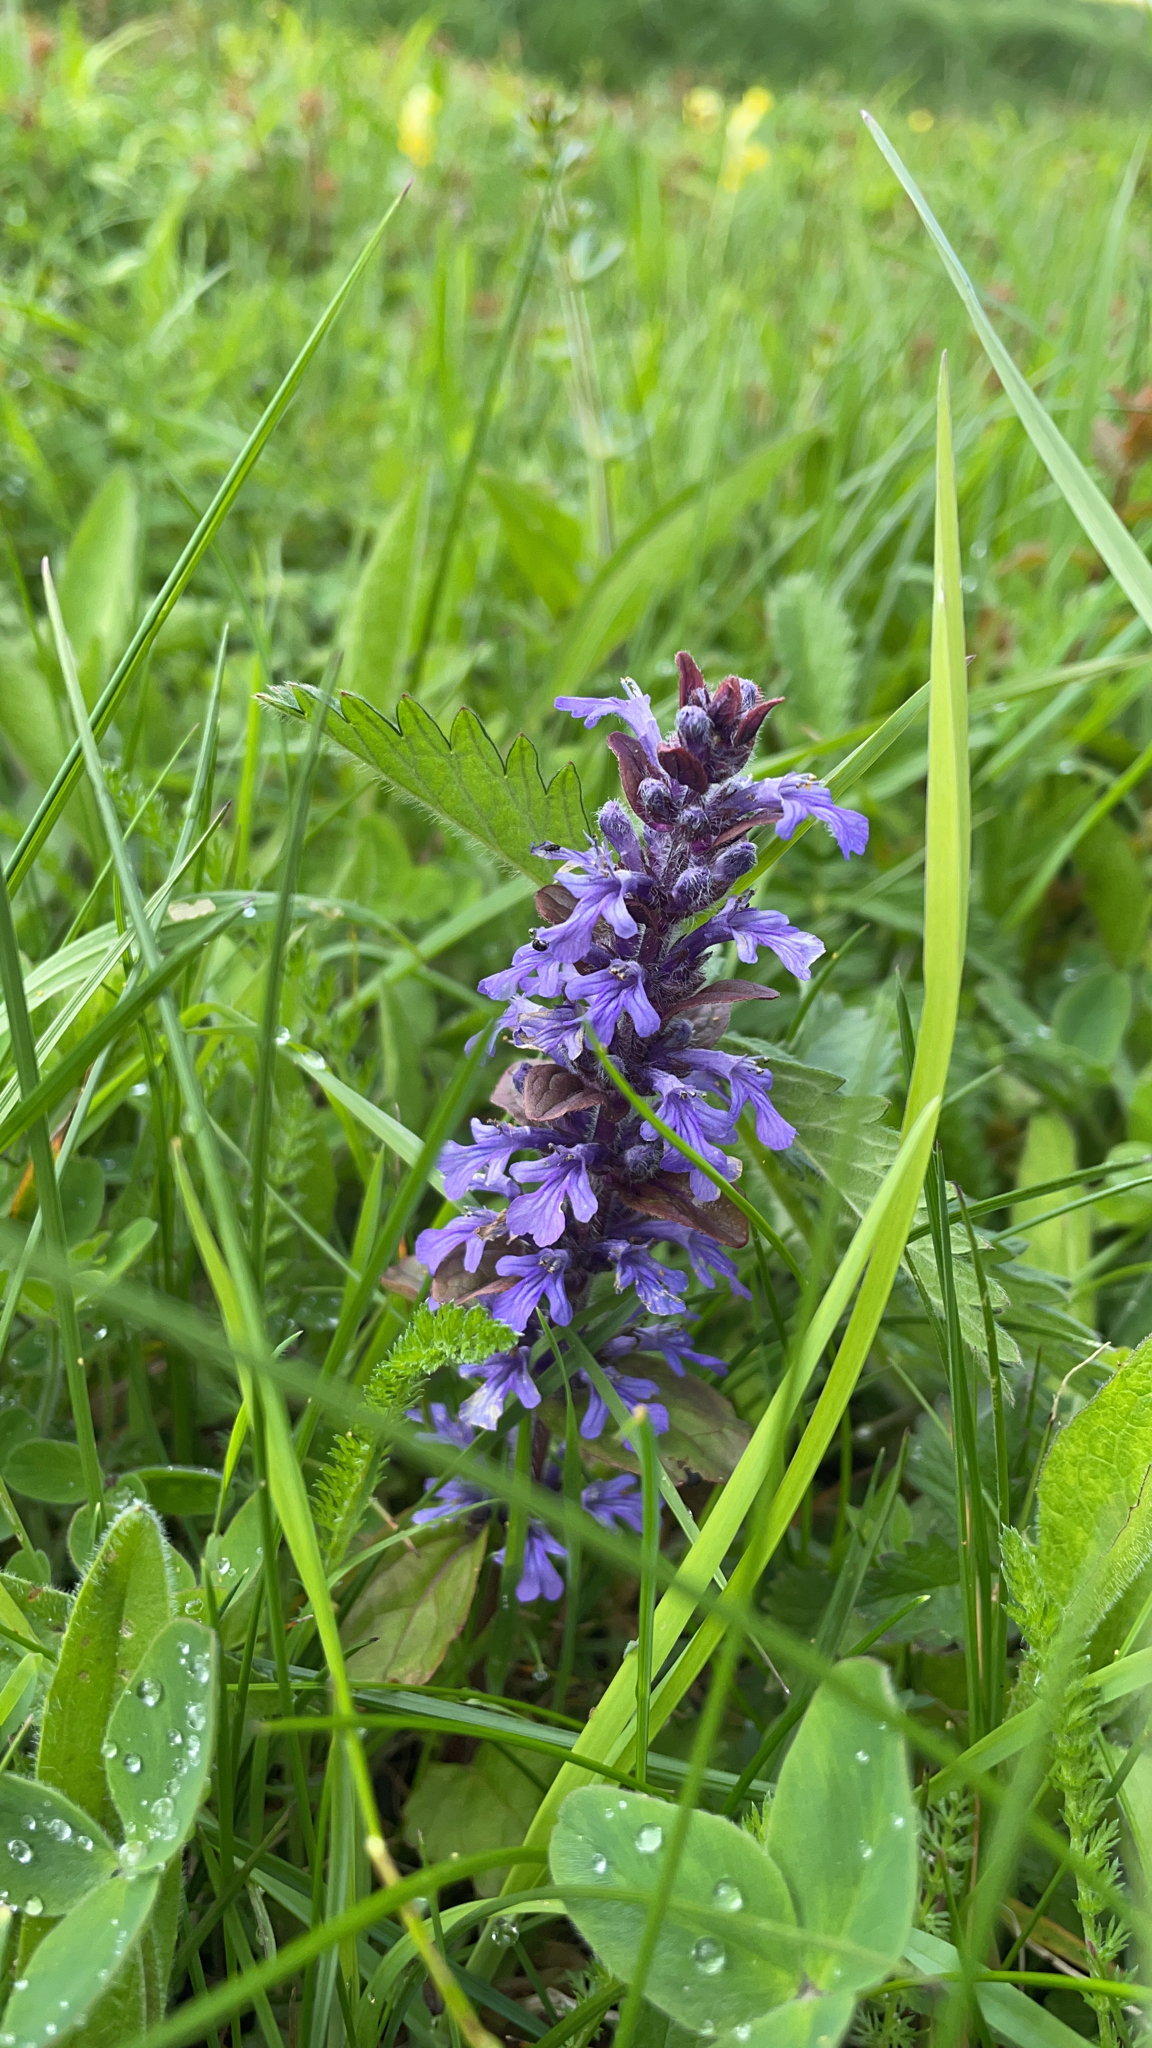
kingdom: Plantae
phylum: Tracheophyta
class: Magnoliopsida
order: Lamiales
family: Lamiaceae
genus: Ajuga
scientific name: Ajuga reptans
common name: Bugle
